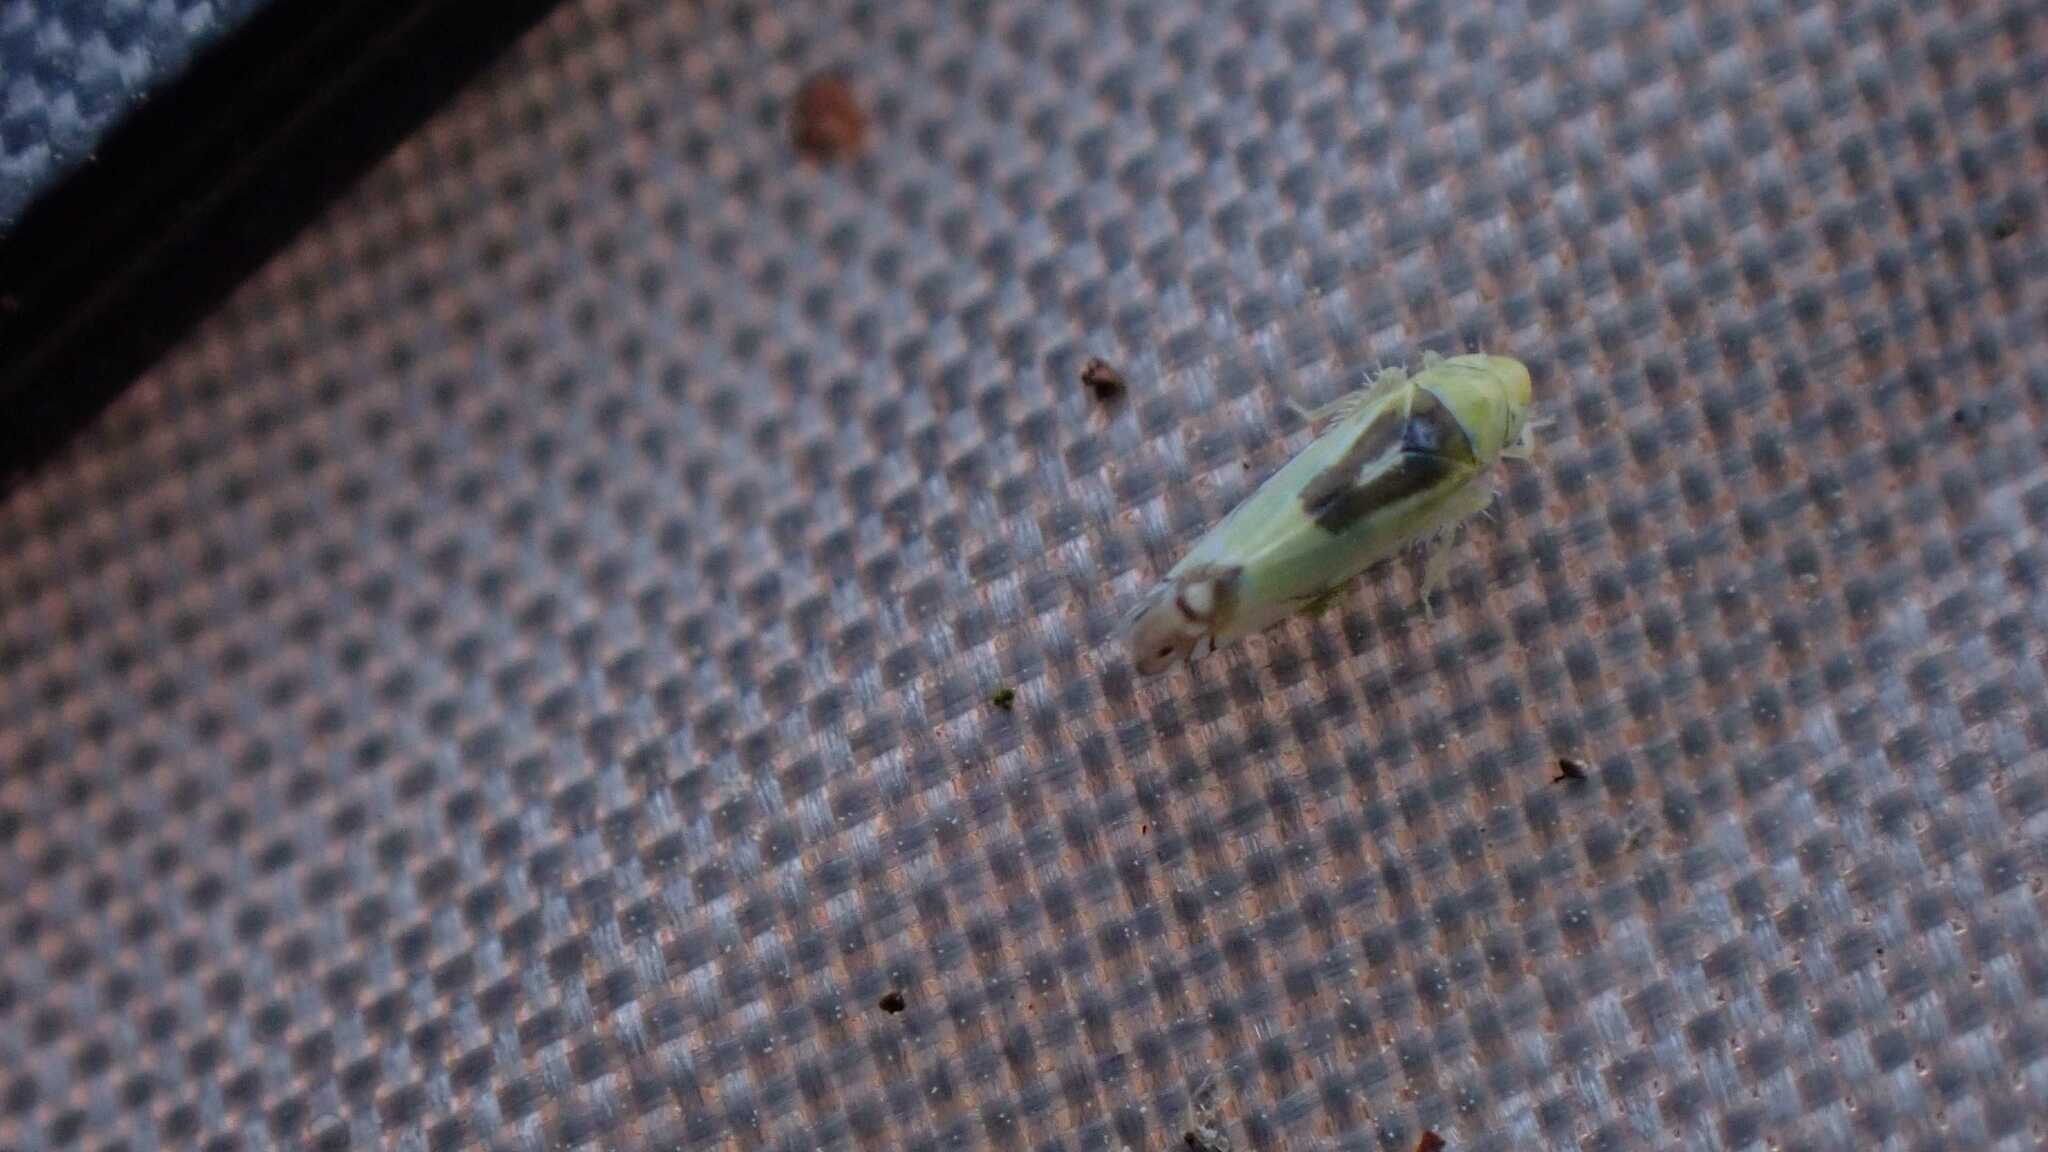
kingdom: Animalia
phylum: Arthropoda
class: Insecta
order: Hemiptera
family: Cicadellidae
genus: Zyginella
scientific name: Zyginella pulchra
